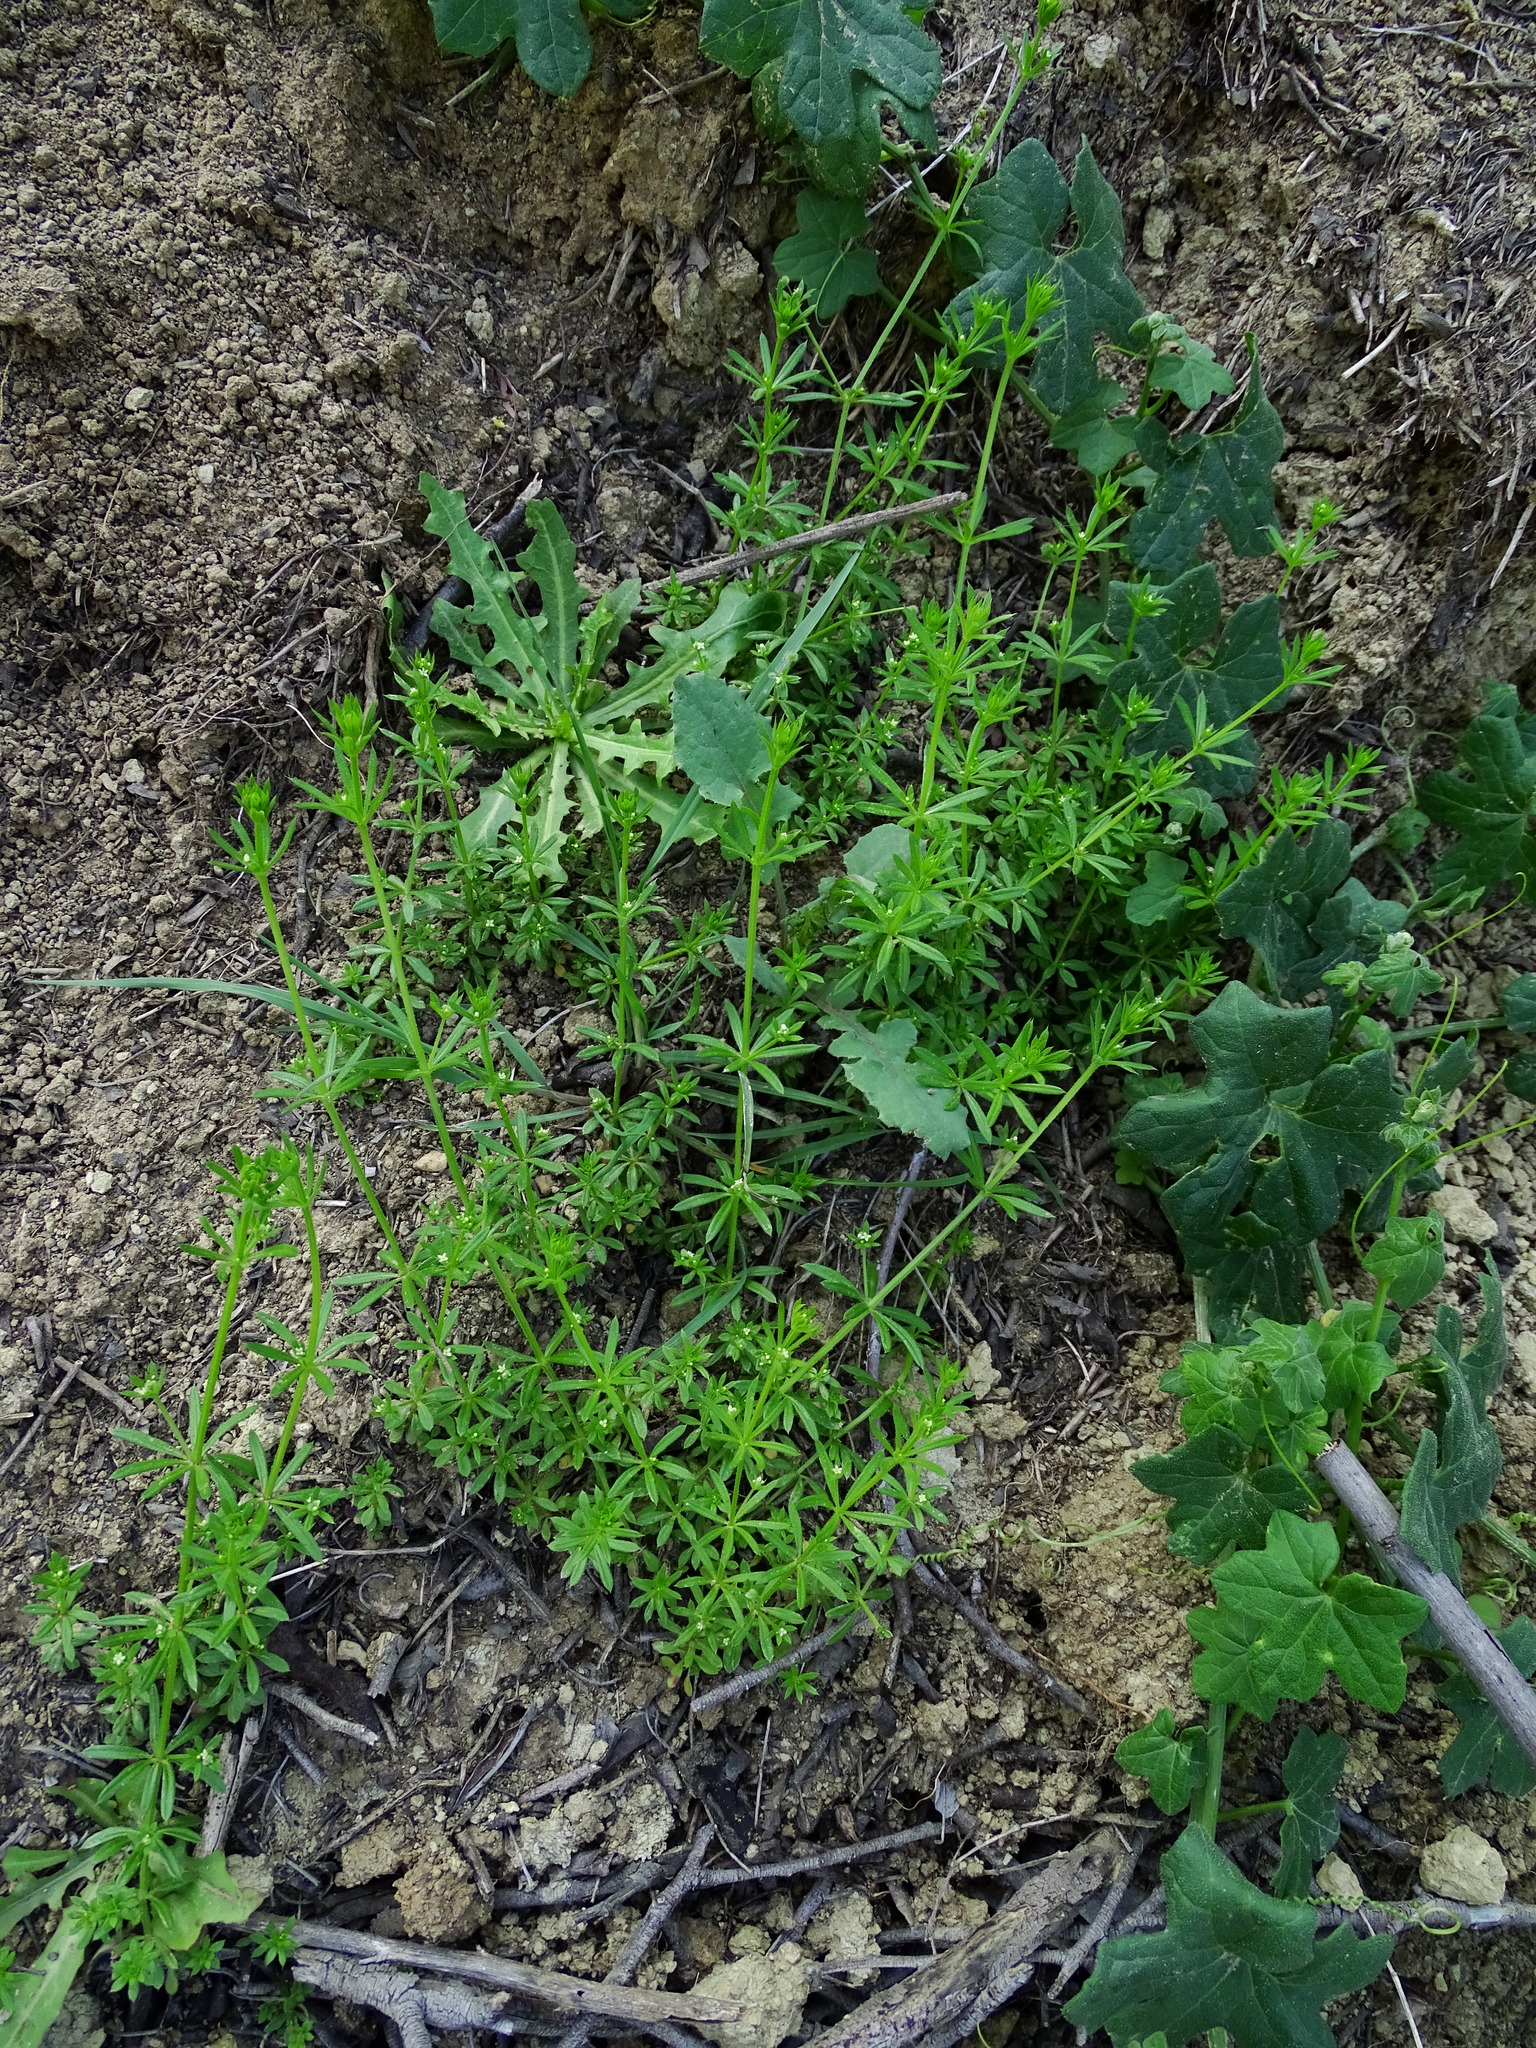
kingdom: Plantae
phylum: Tracheophyta
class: Magnoliopsida
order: Gentianales
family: Rubiaceae
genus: Galium
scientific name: Galium aparine
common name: Cleavers
